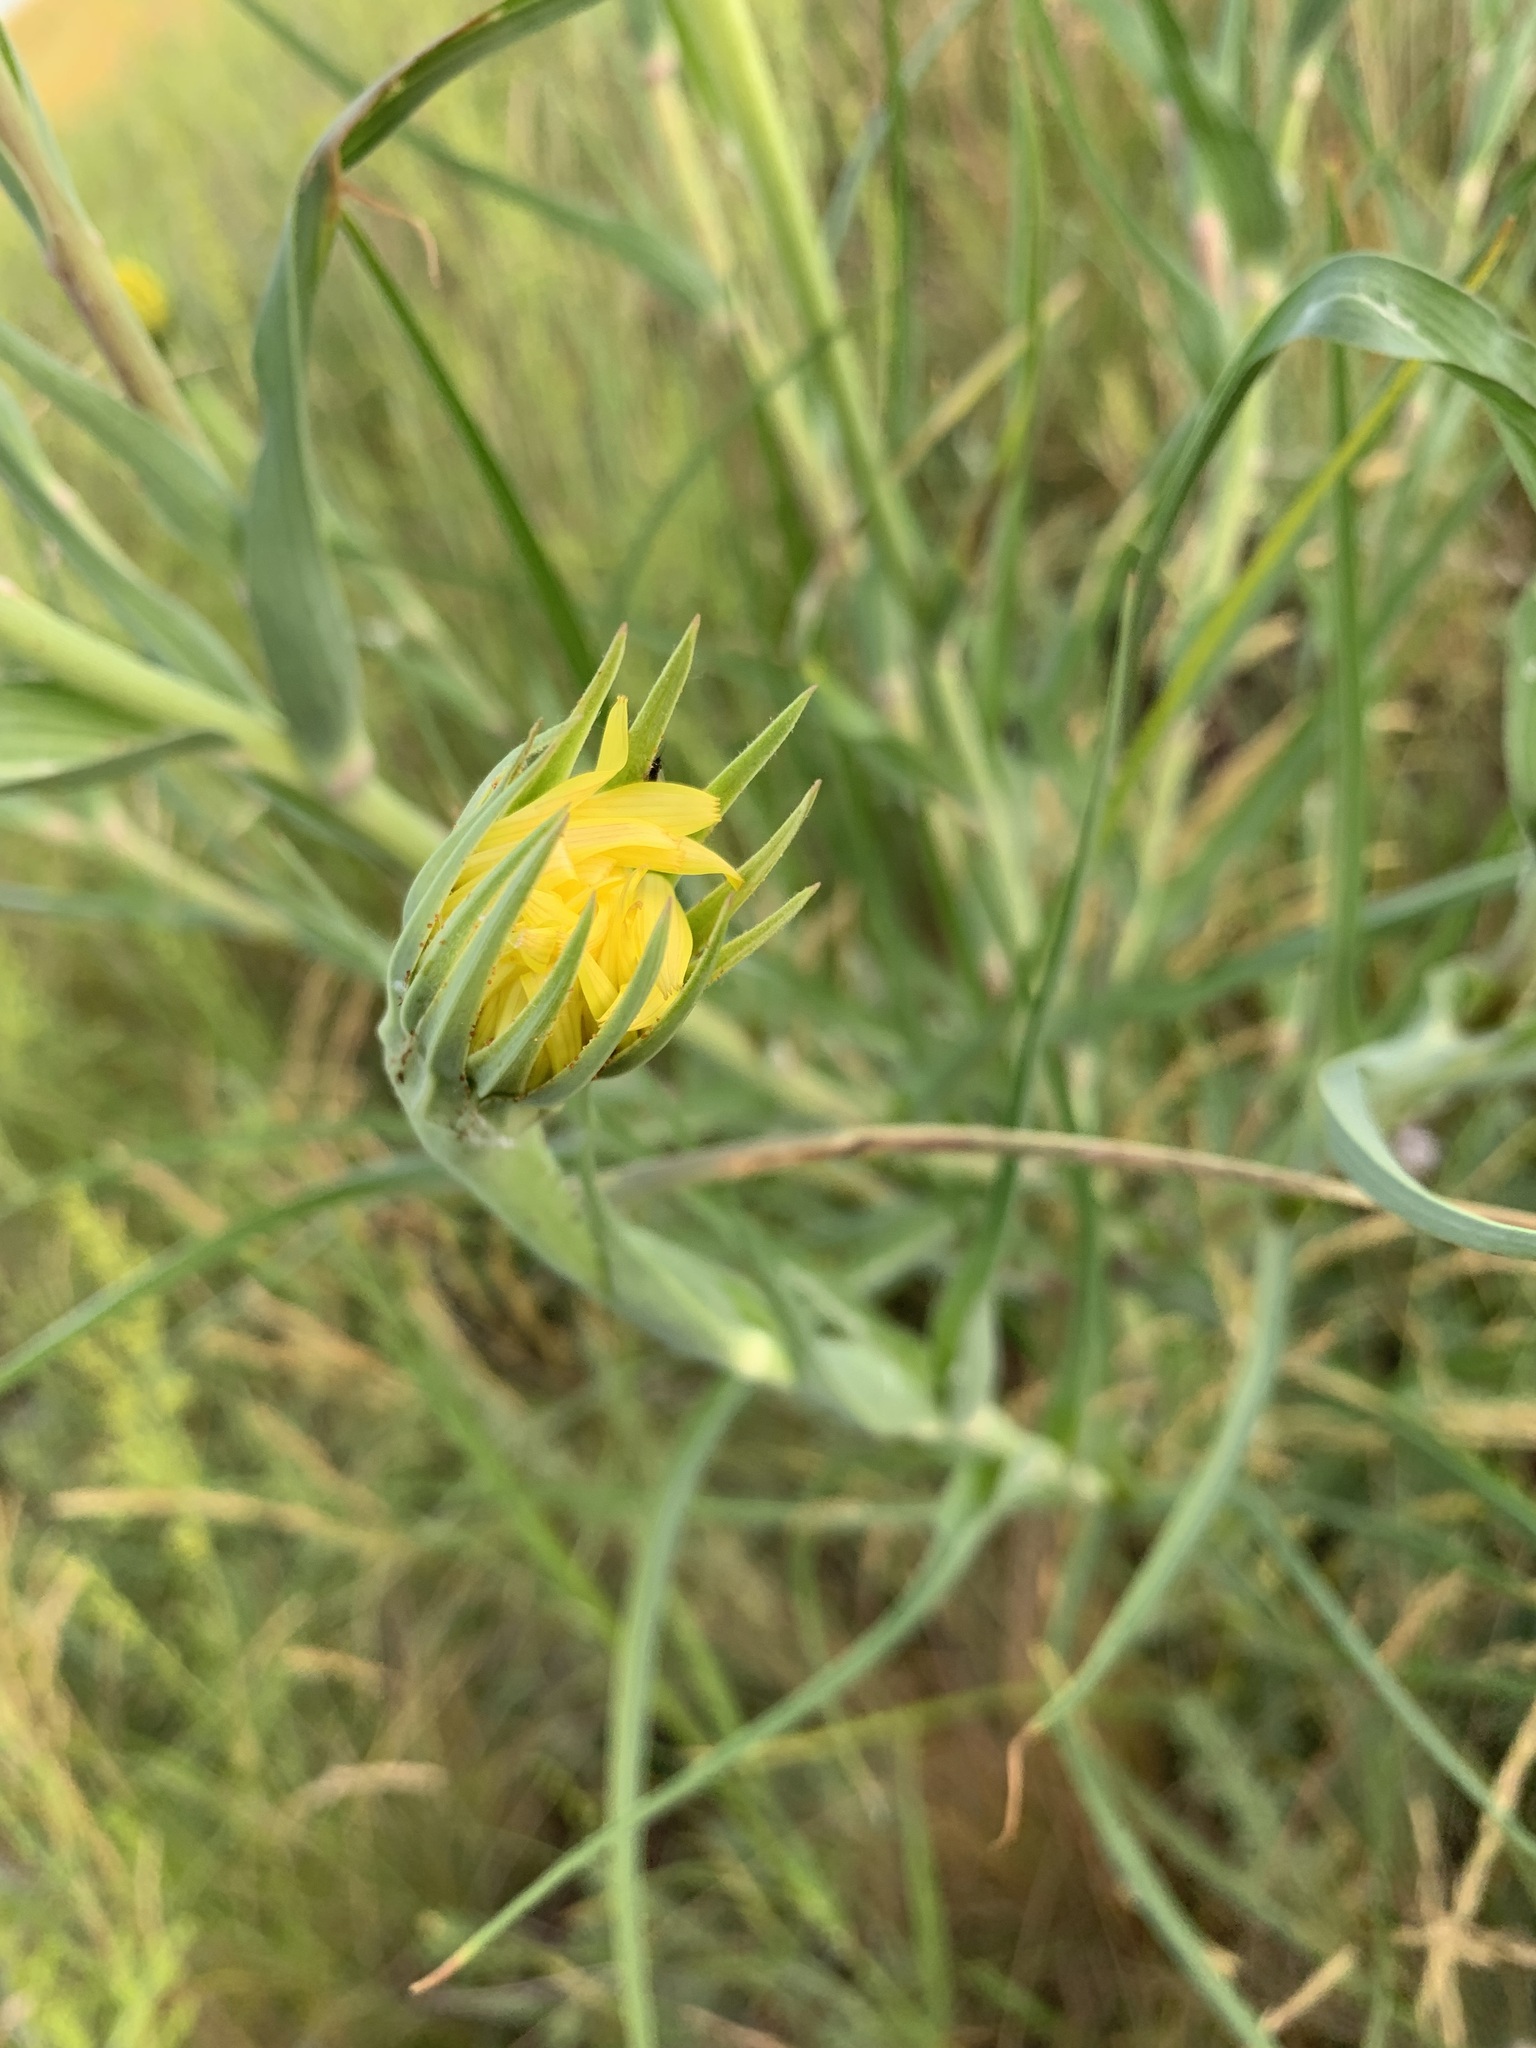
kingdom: Plantae
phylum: Tracheophyta
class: Magnoliopsida
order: Asterales
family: Asteraceae
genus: Tragopogon
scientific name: Tragopogon dubius
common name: Yellow salsify
